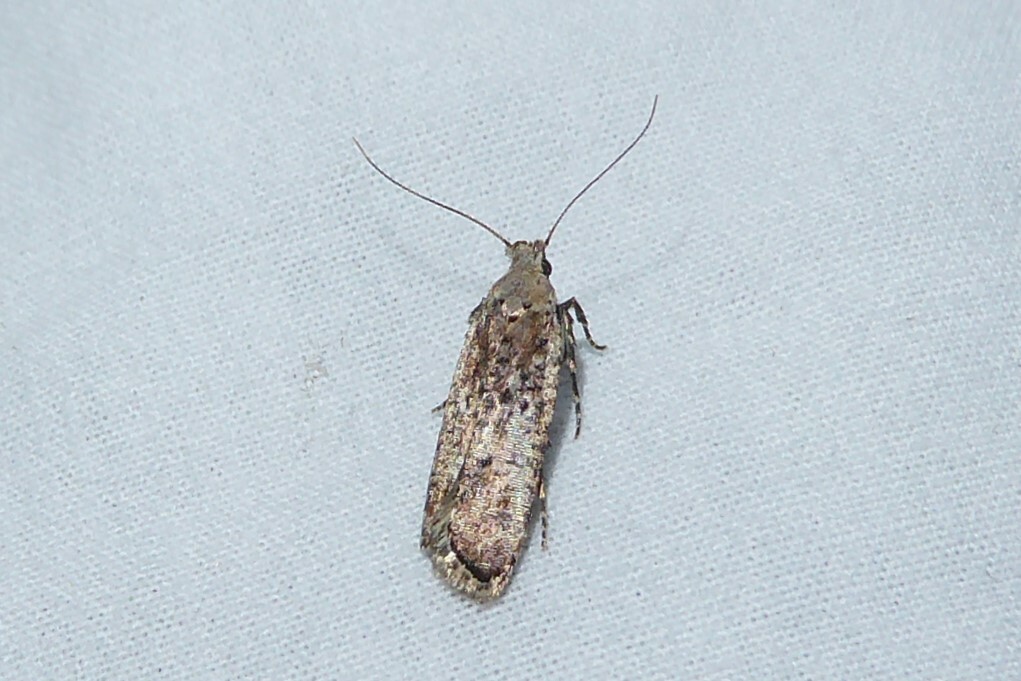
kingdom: Animalia
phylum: Arthropoda
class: Insecta
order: Lepidoptera
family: Gelechiidae
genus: Anisoplaca
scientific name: Anisoplaca achyrota
